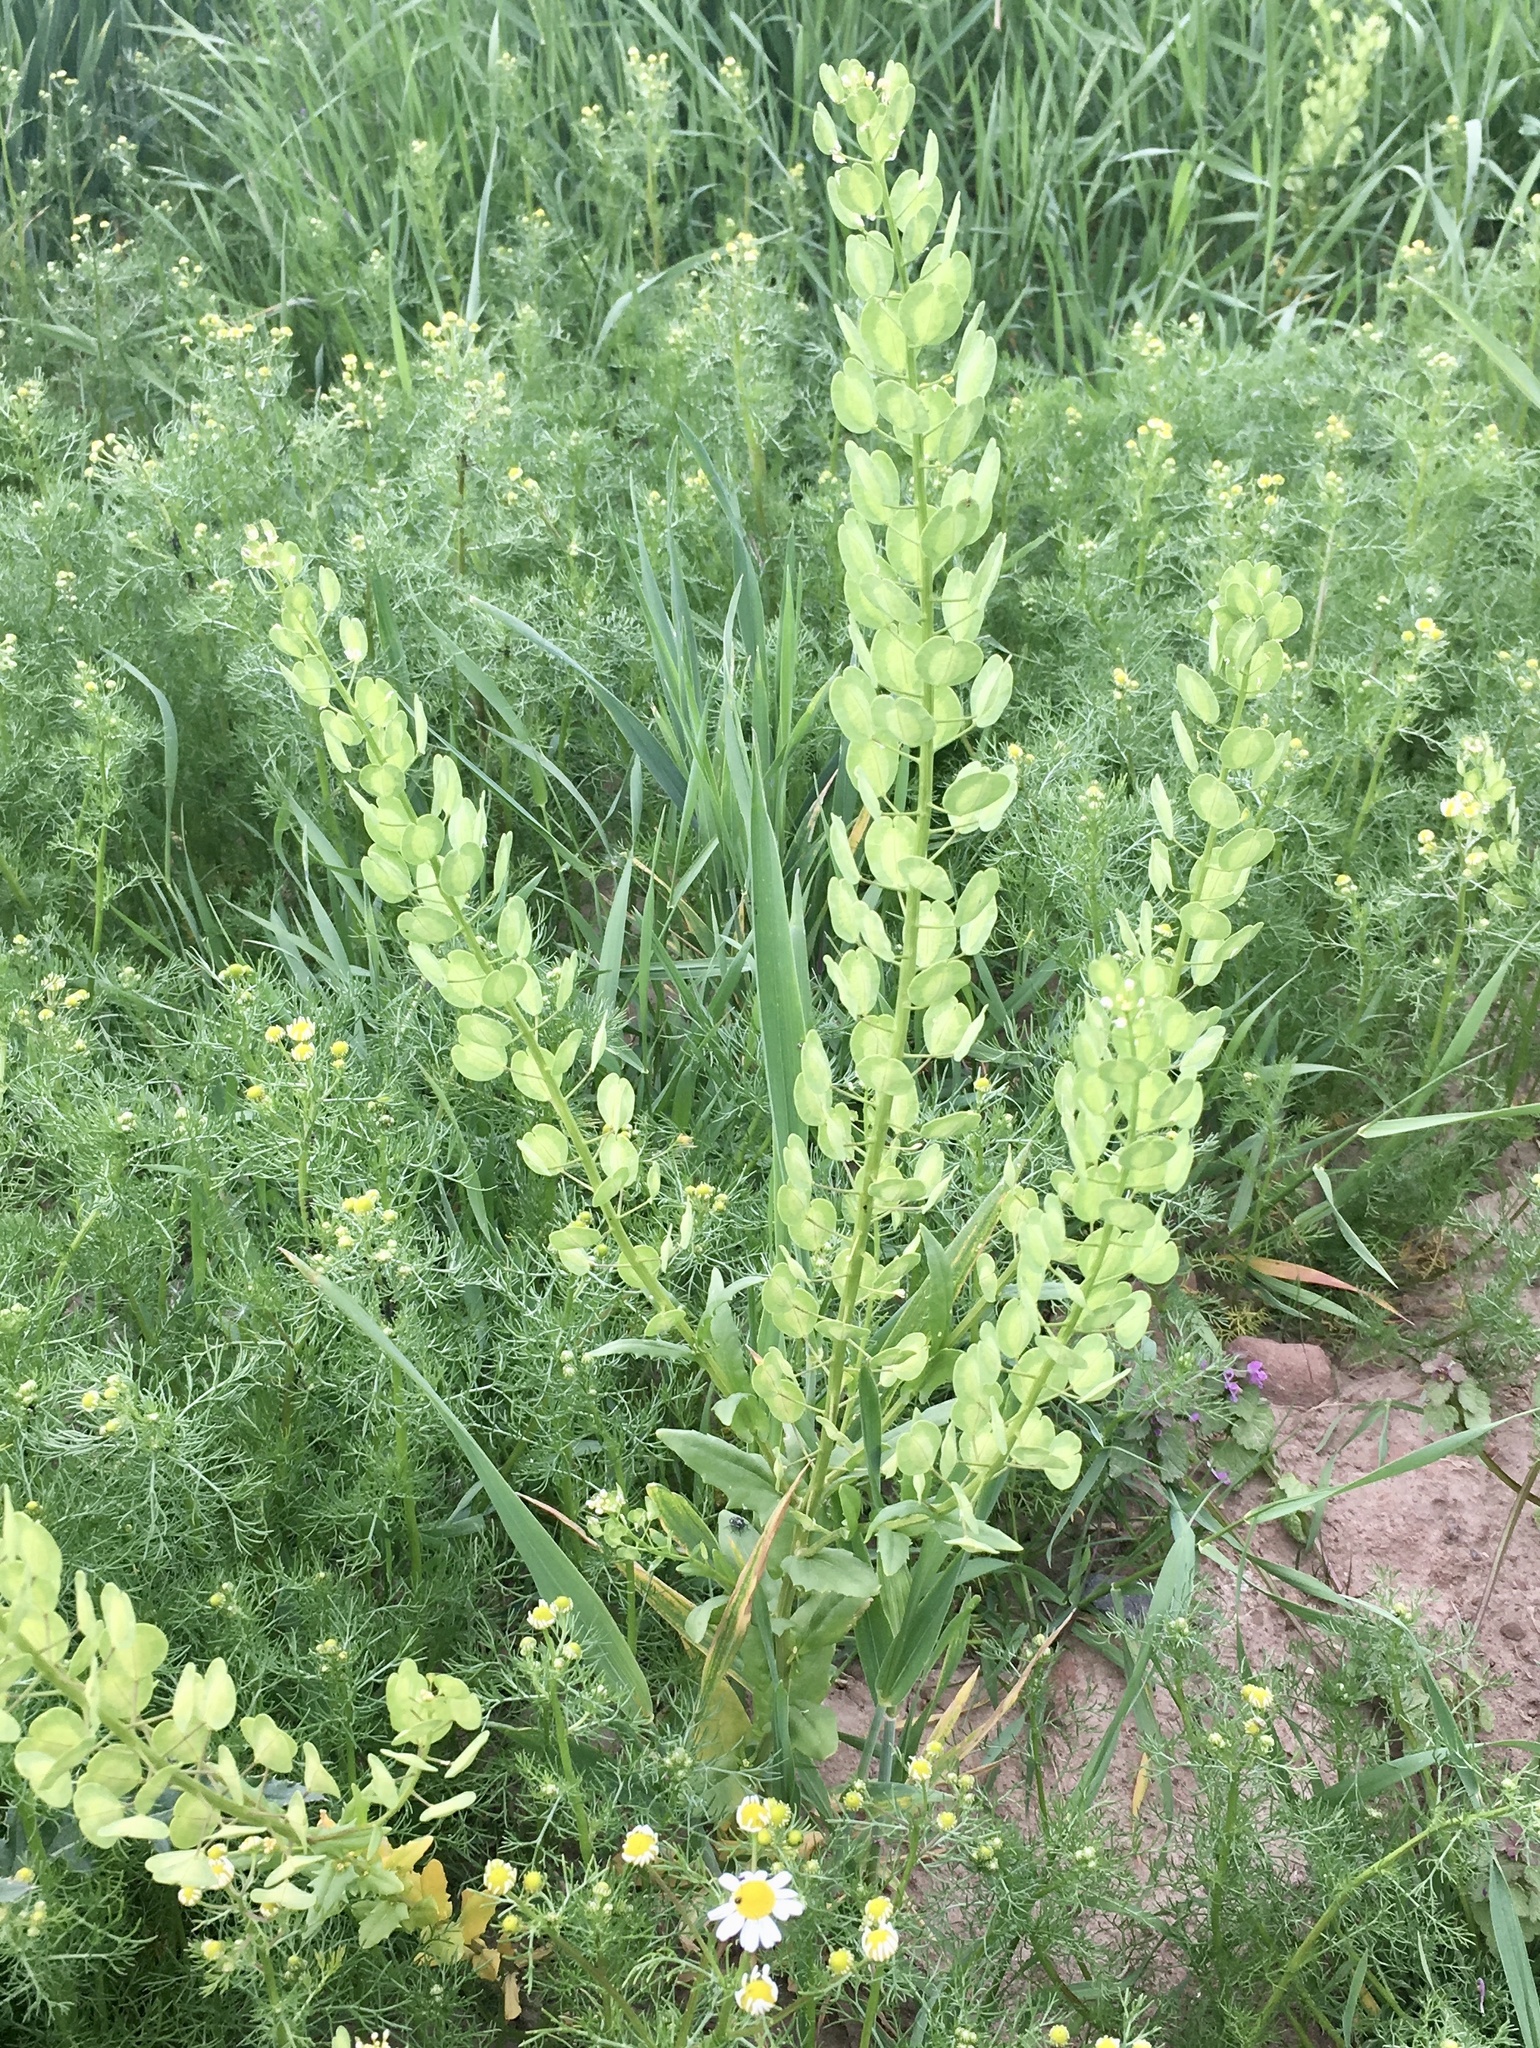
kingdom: Plantae
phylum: Tracheophyta
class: Magnoliopsida
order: Brassicales
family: Brassicaceae
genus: Thlaspi
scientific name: Thlaspi arvense
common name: Field pennycress
